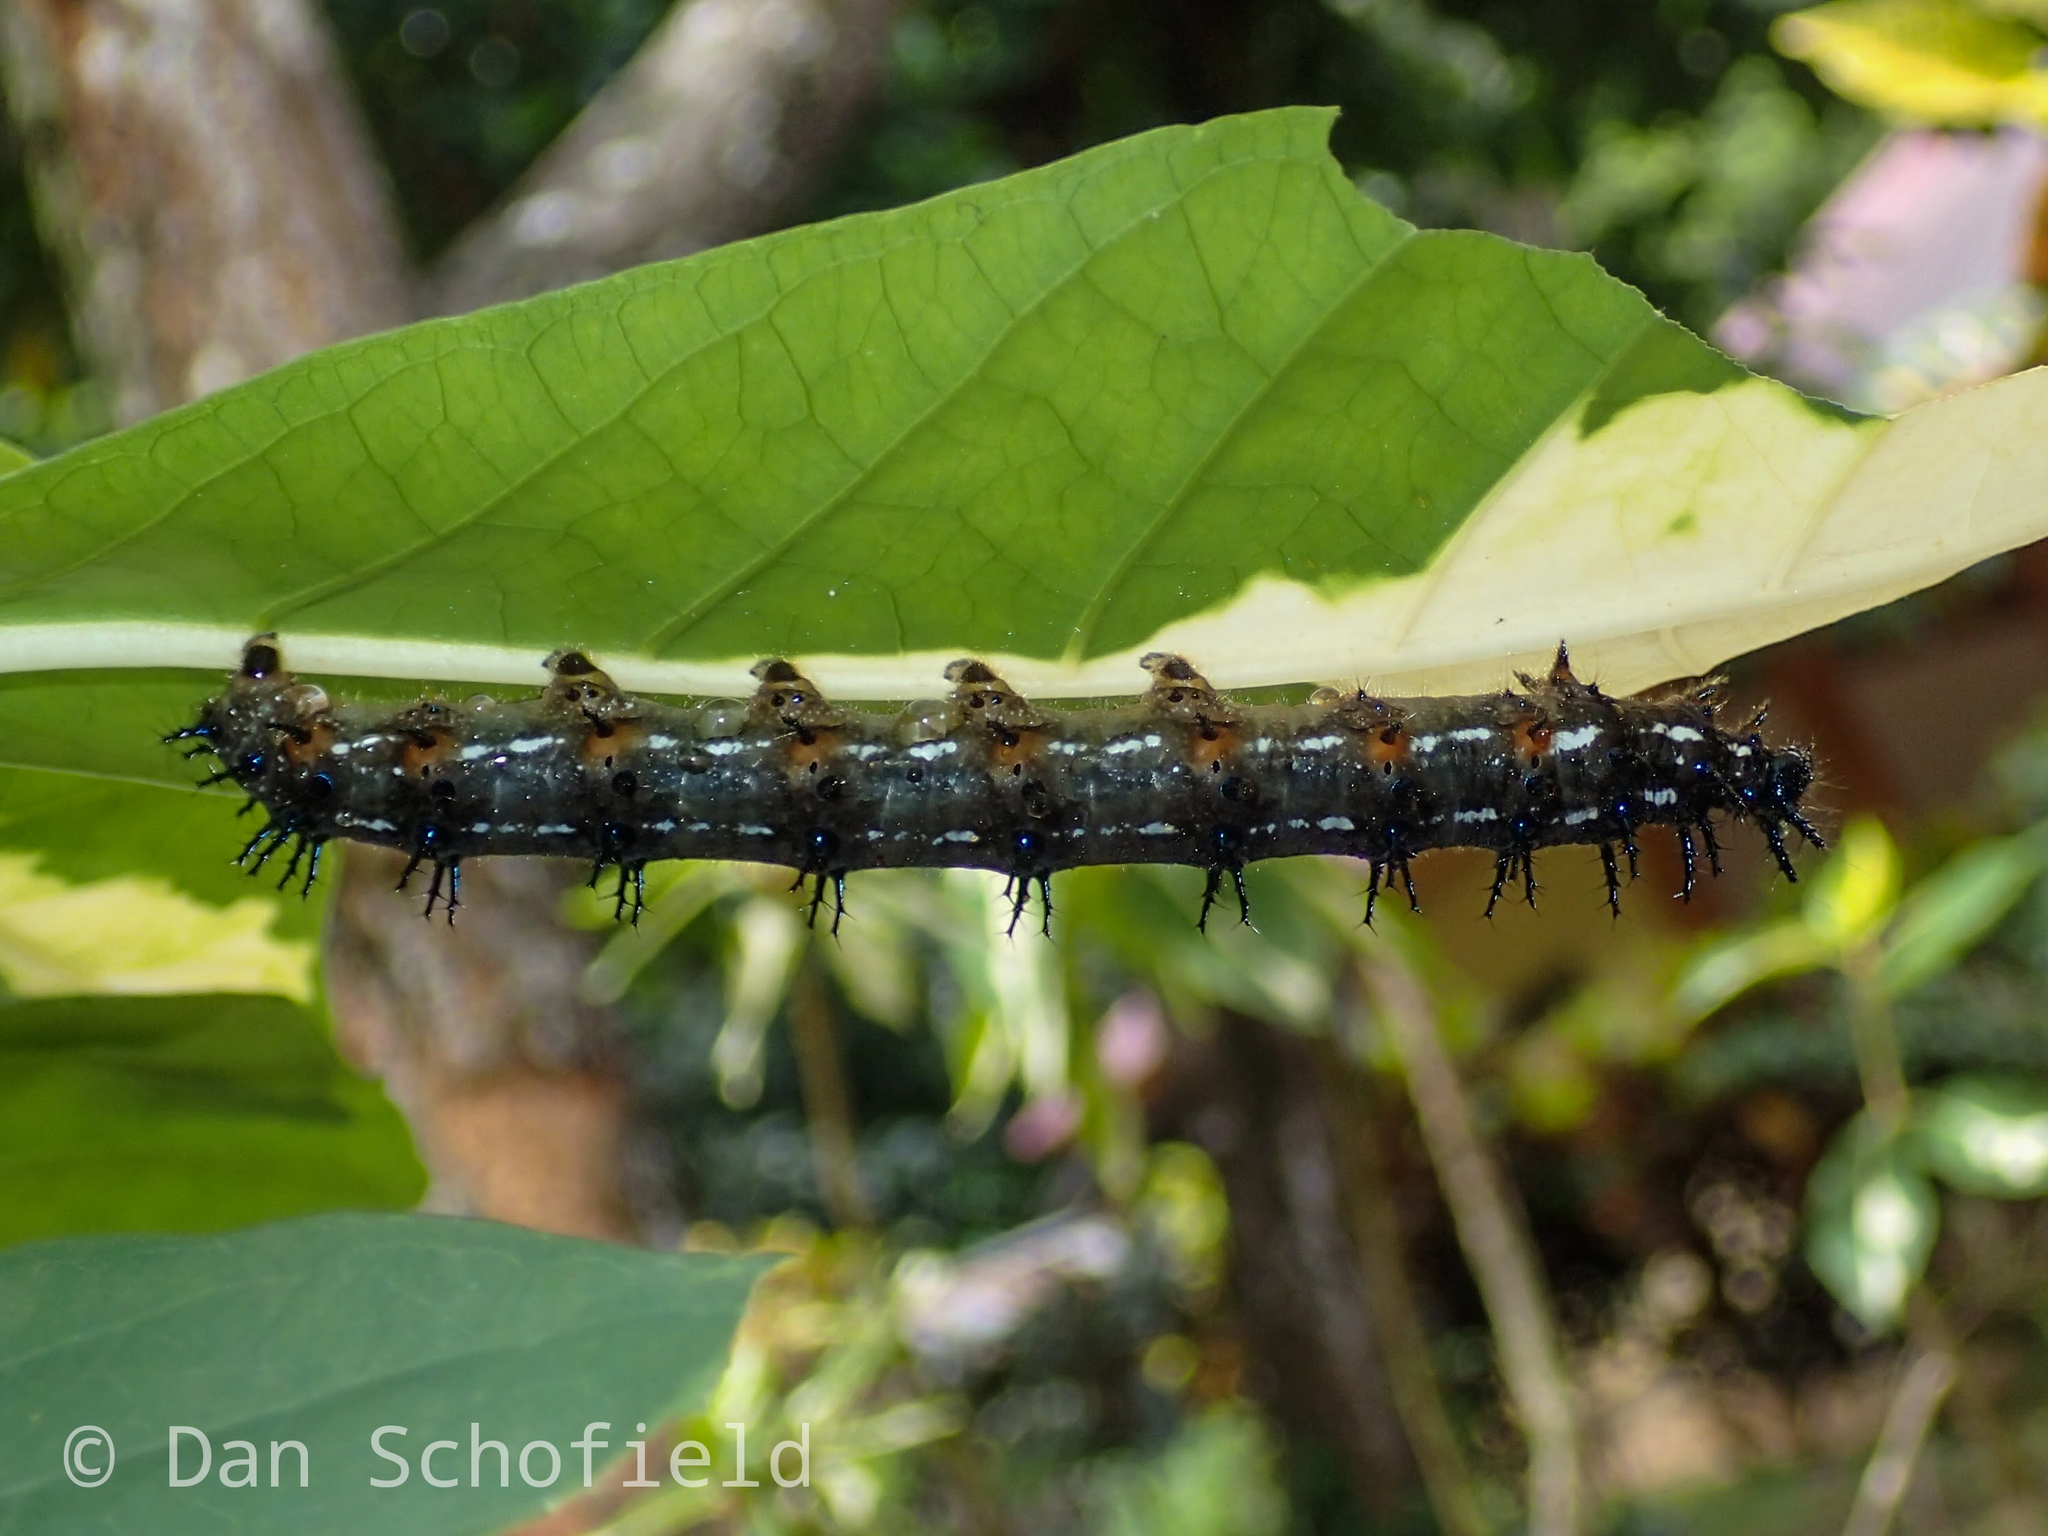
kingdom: Animalia
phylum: Arthropoda
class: Insecta
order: Lepidoptera
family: Nymphalidae
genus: Doleschallia
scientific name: Doleschallia bisaltide
